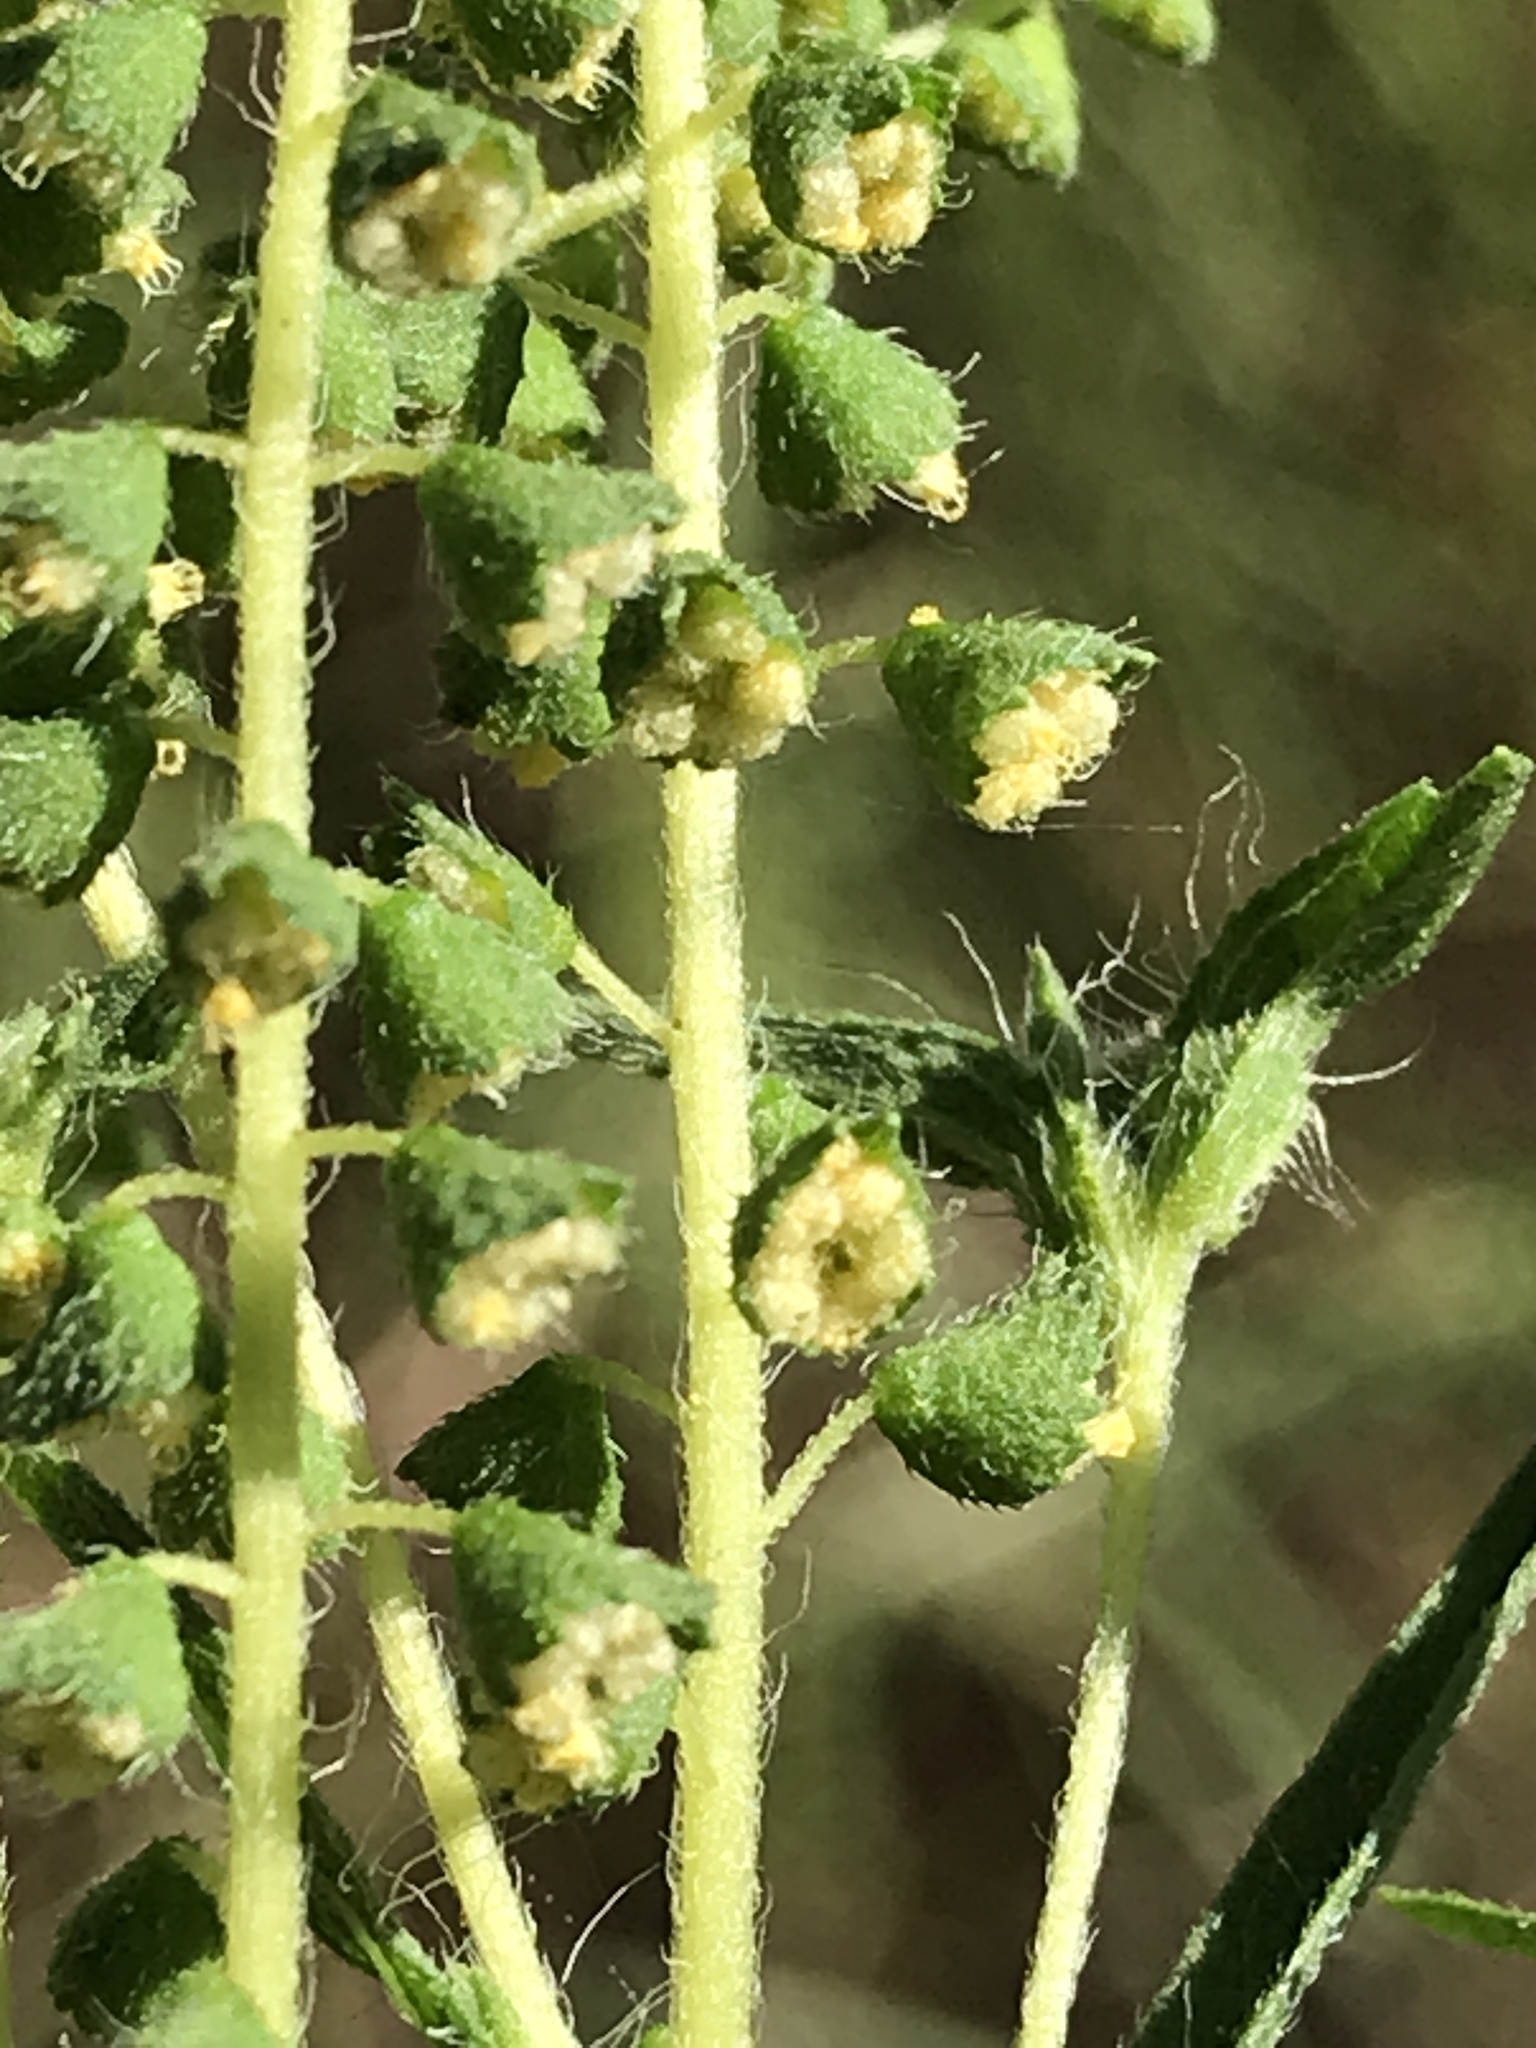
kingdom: Plantae
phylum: Tracheophyta
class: Magnoliopsida
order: Asterales
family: Asteraceae
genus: Ambrosia
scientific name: Ambrosia psilostachya
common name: Perennial ragweed
